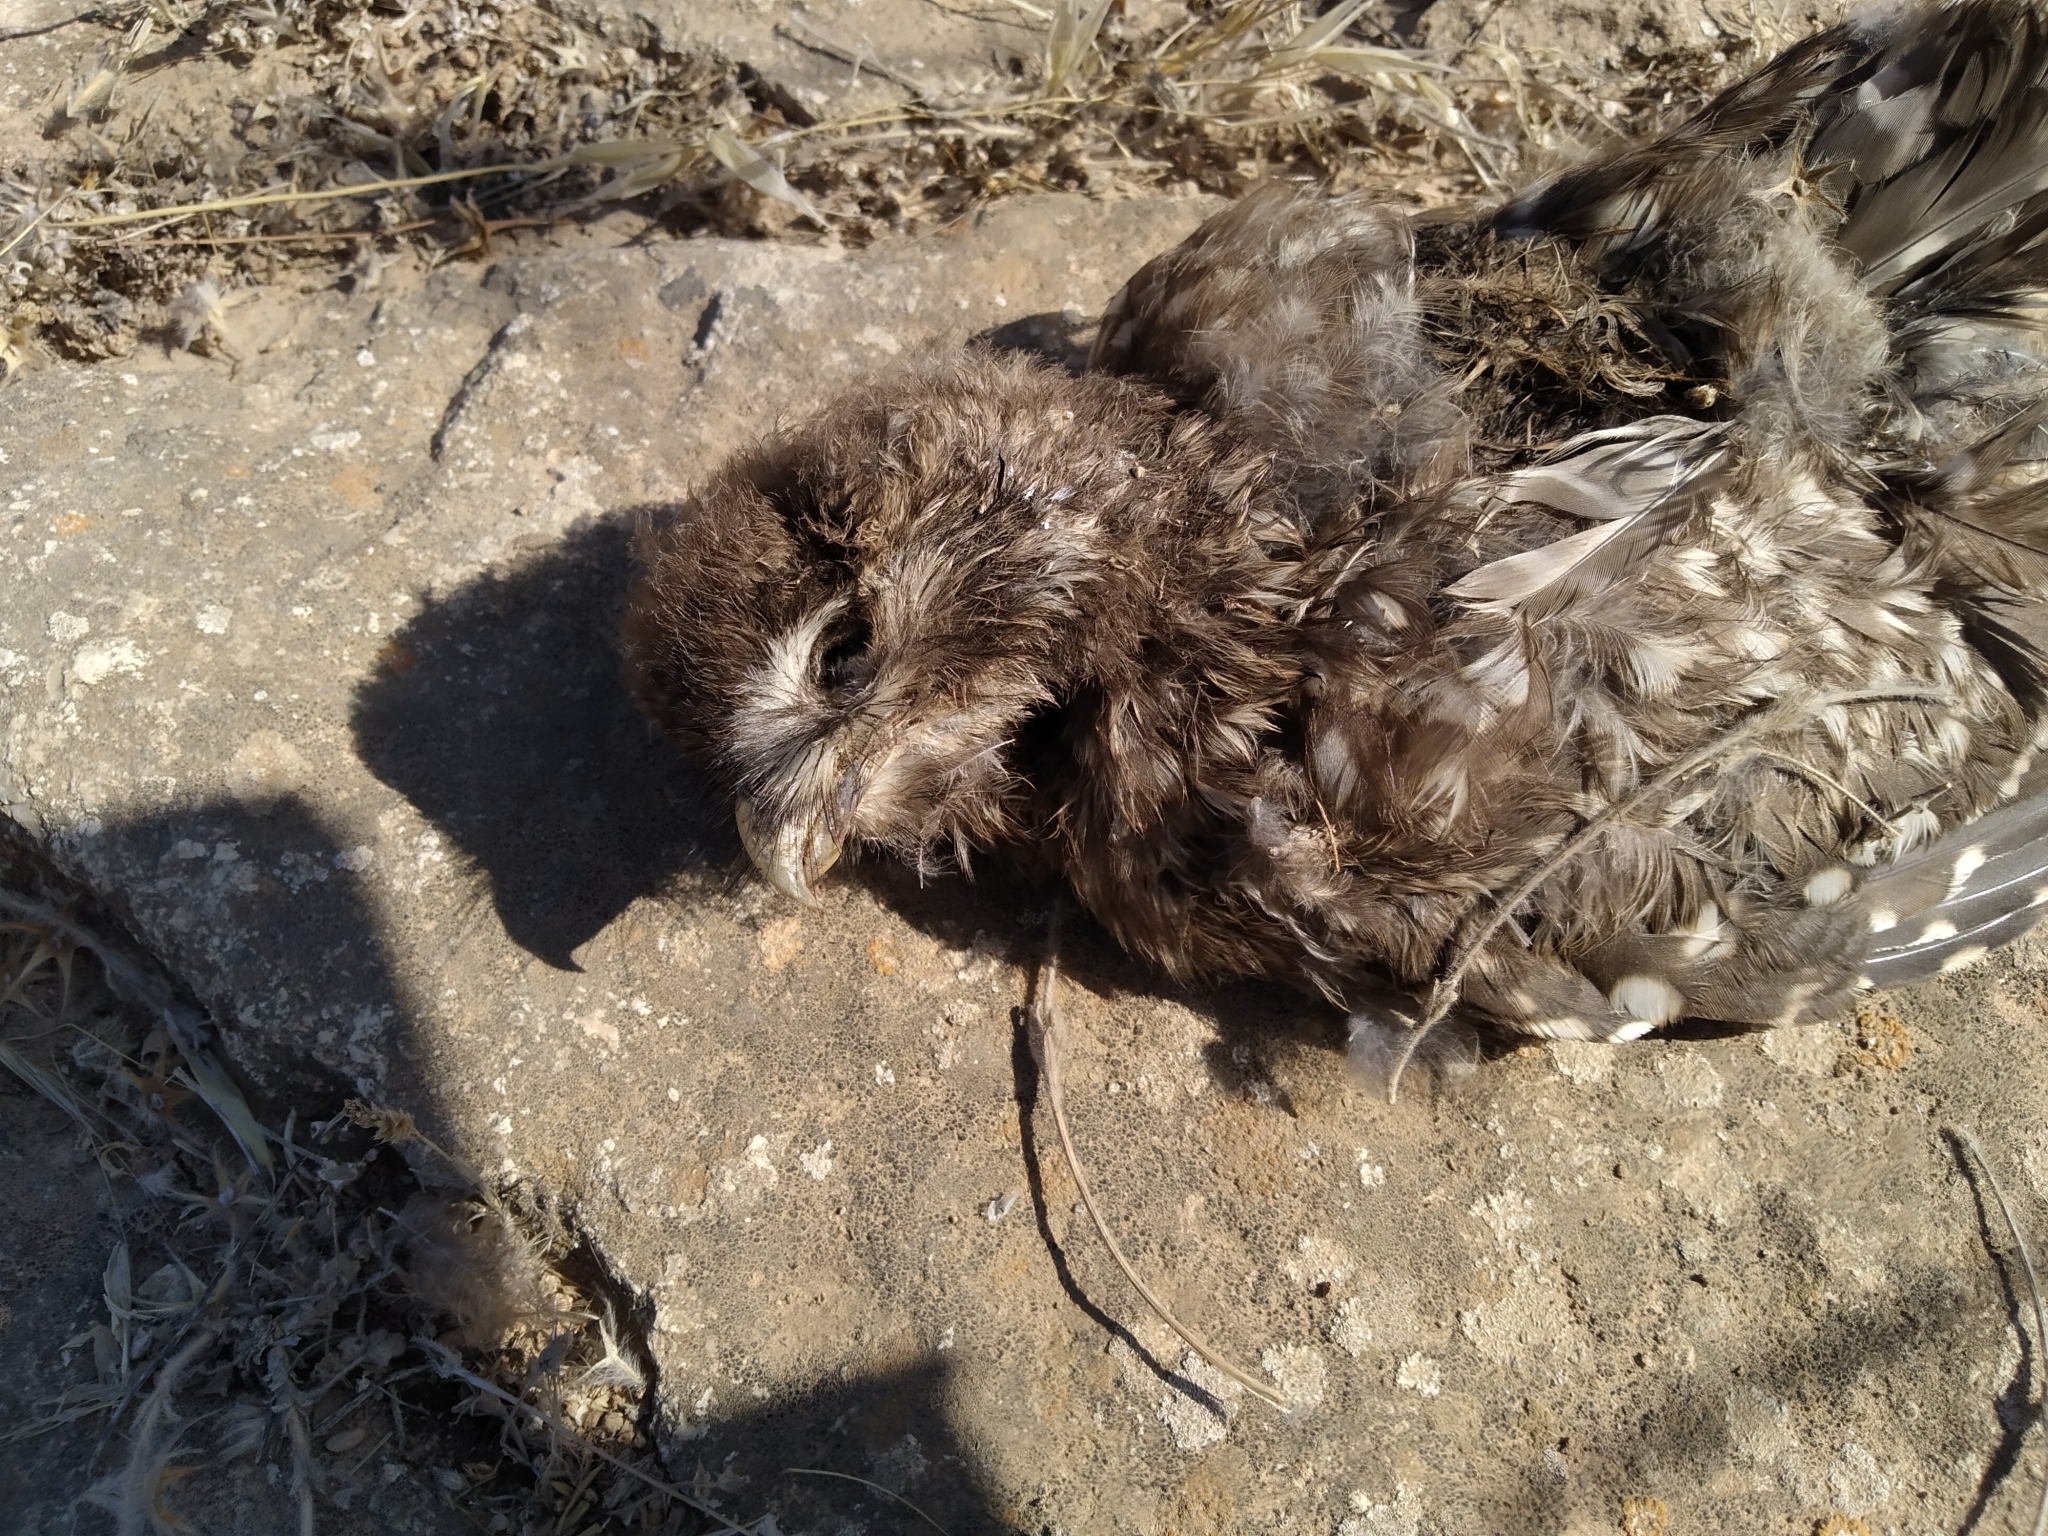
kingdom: Animalia
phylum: Chordata
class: Aves
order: Strigiformes
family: Strigidae
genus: Athene
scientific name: Athene noctua
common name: Little owl
